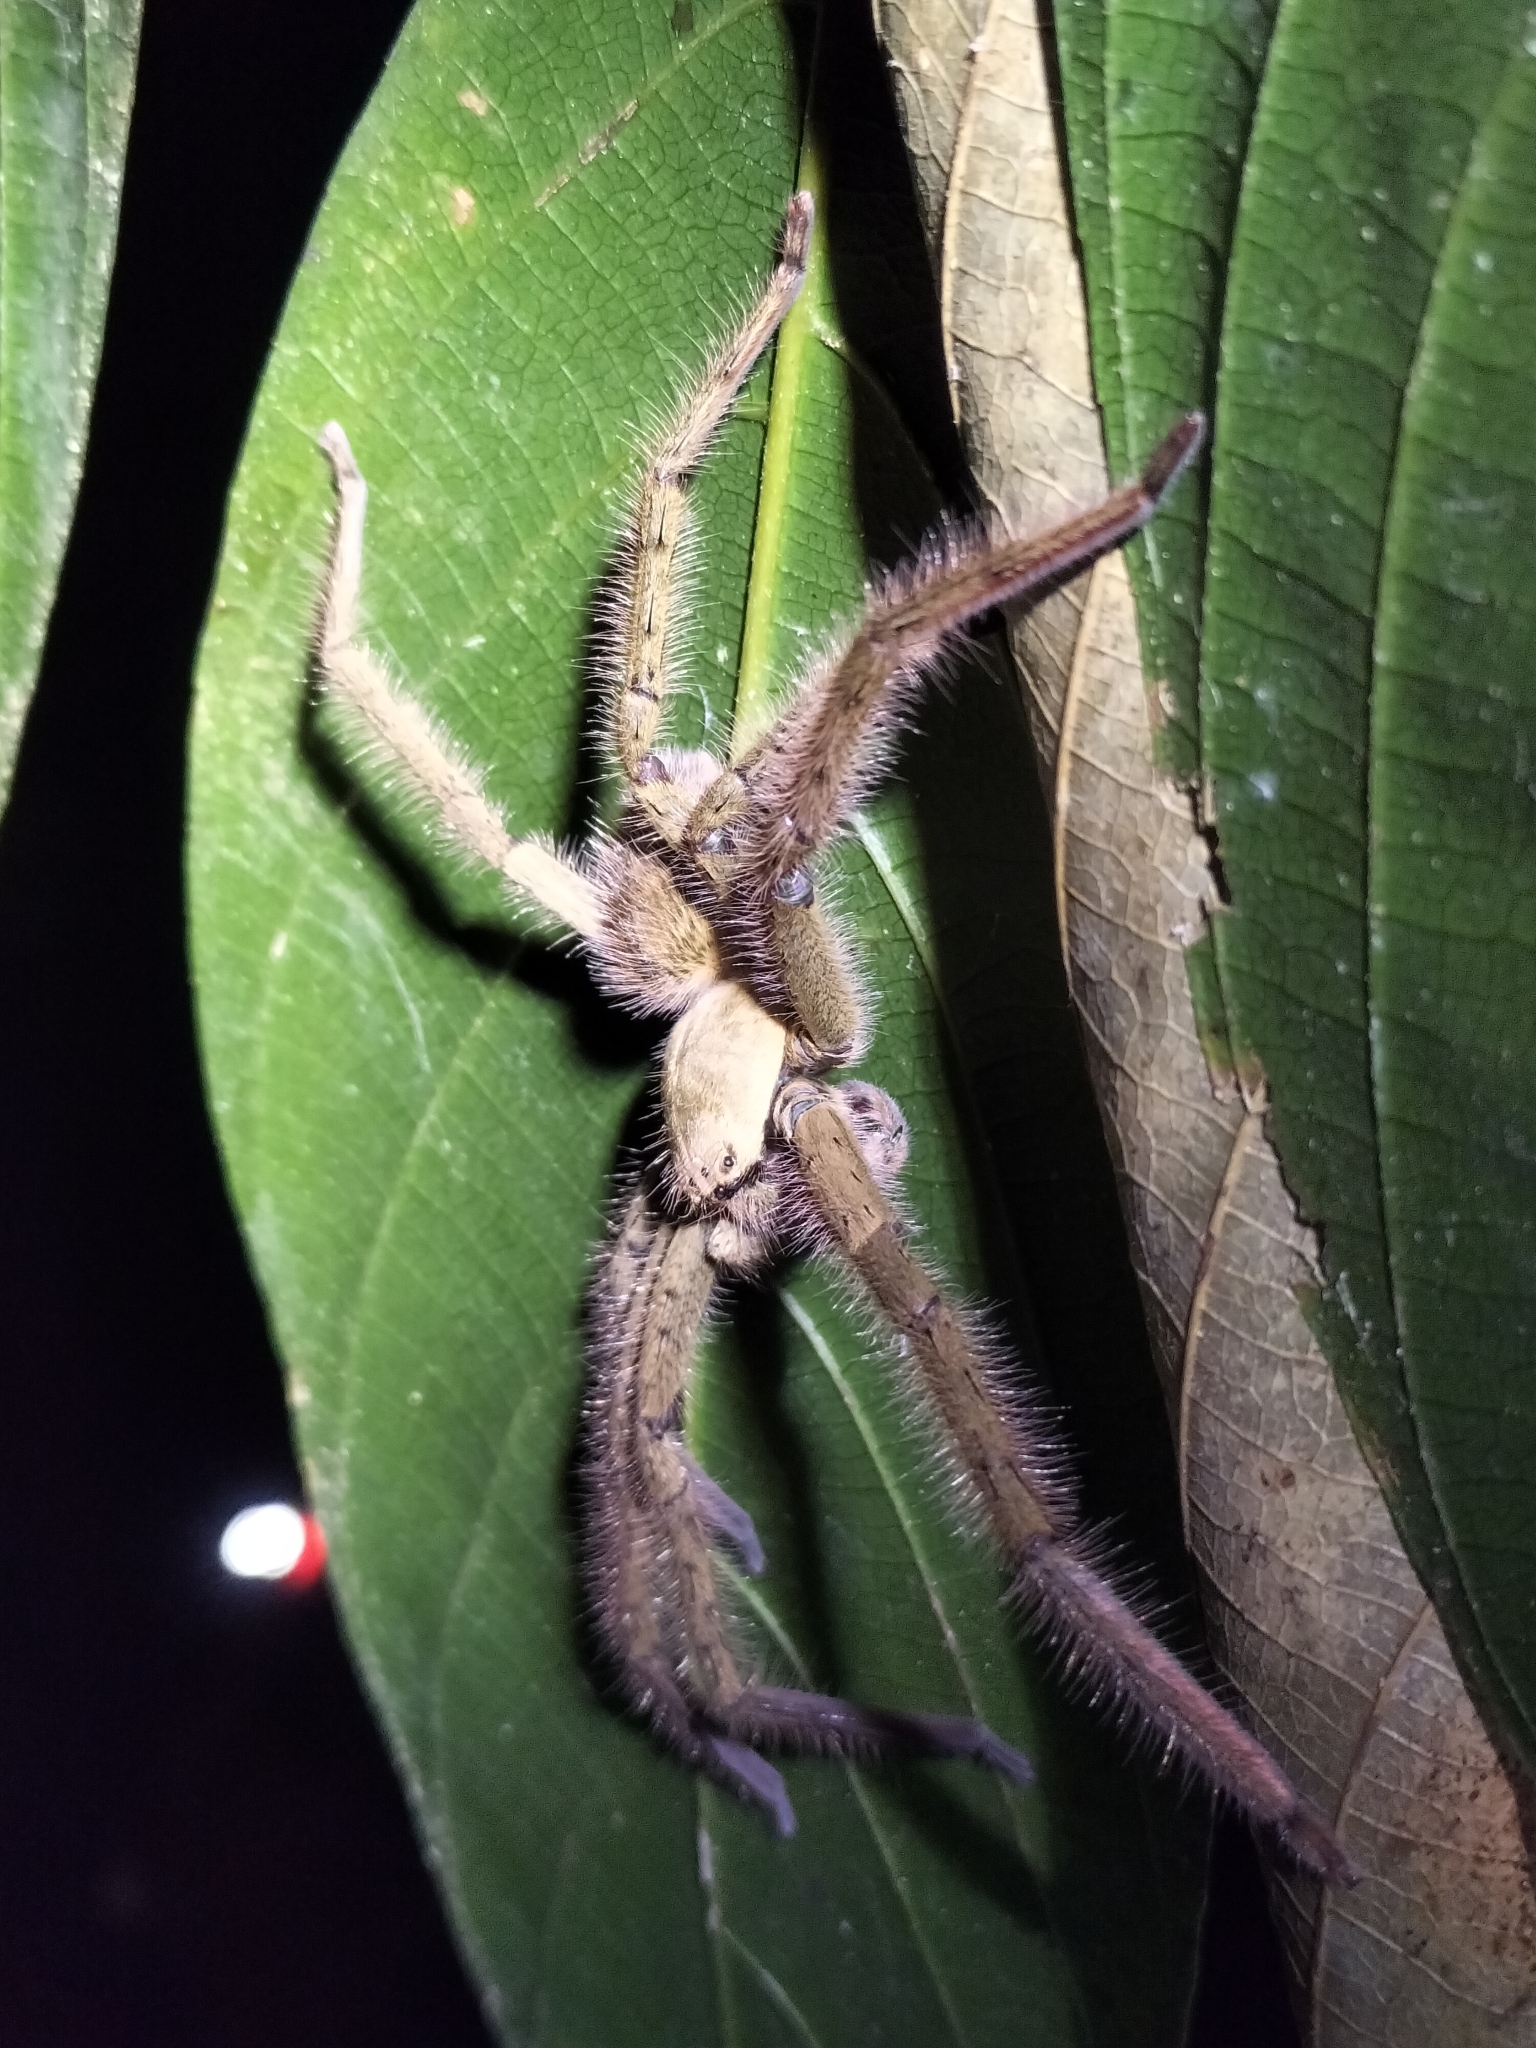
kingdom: Animalia
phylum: Arthropoda
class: Arachnida
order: Araneae
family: Sparassidae
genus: Beregama
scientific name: Beregama cordata
